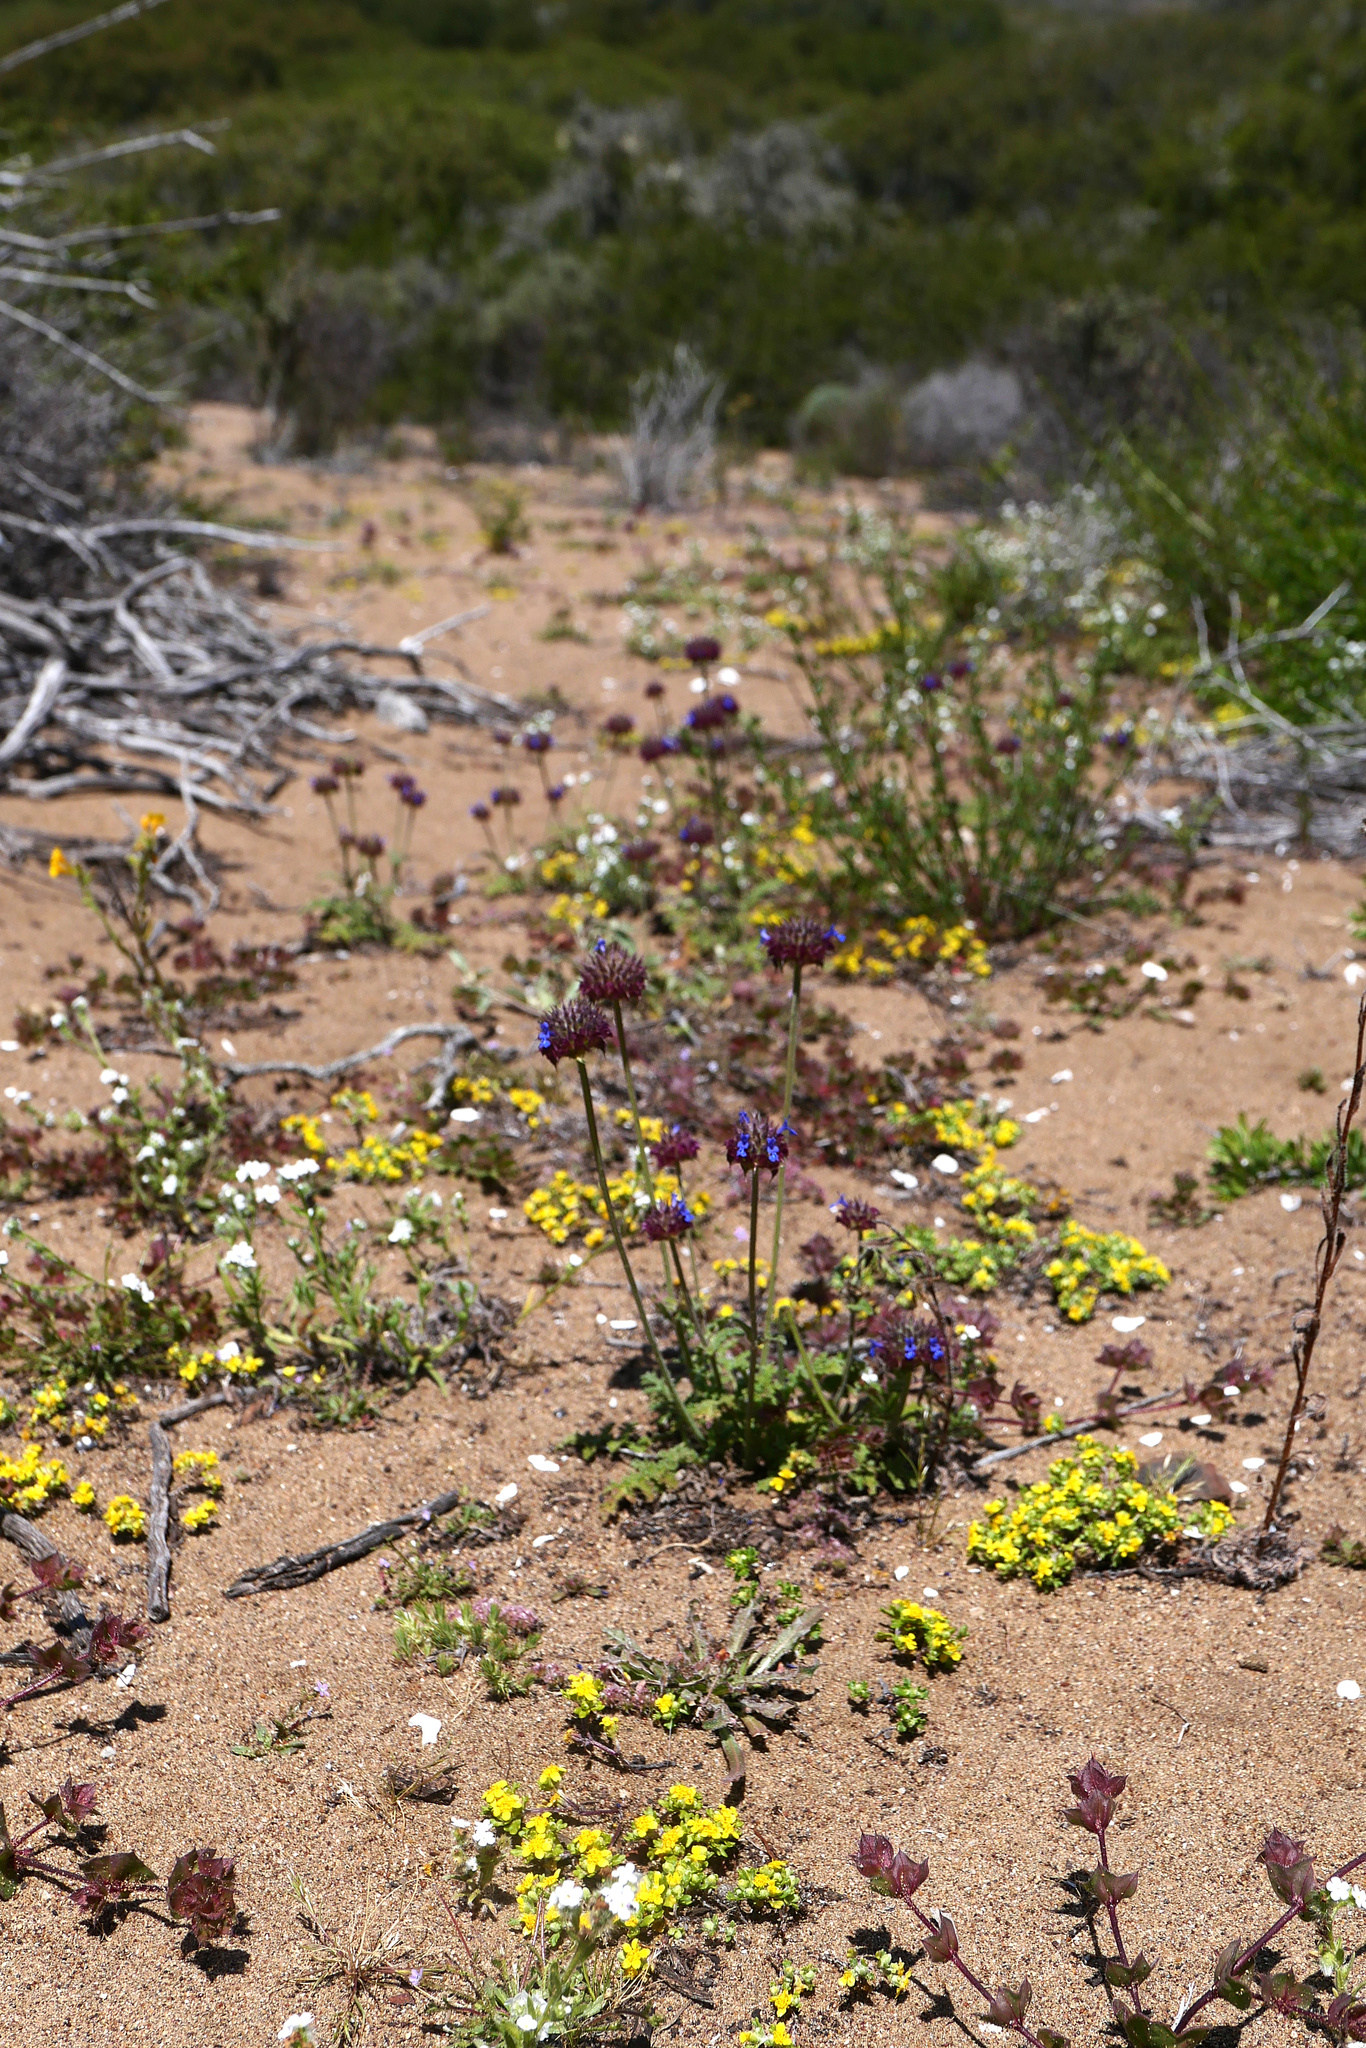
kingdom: Plantae
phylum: Tracheophyta
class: Magnoliopsida
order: Lamiales
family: Lamiaceae
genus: Salvia
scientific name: Salvia columbariae
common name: Chia
